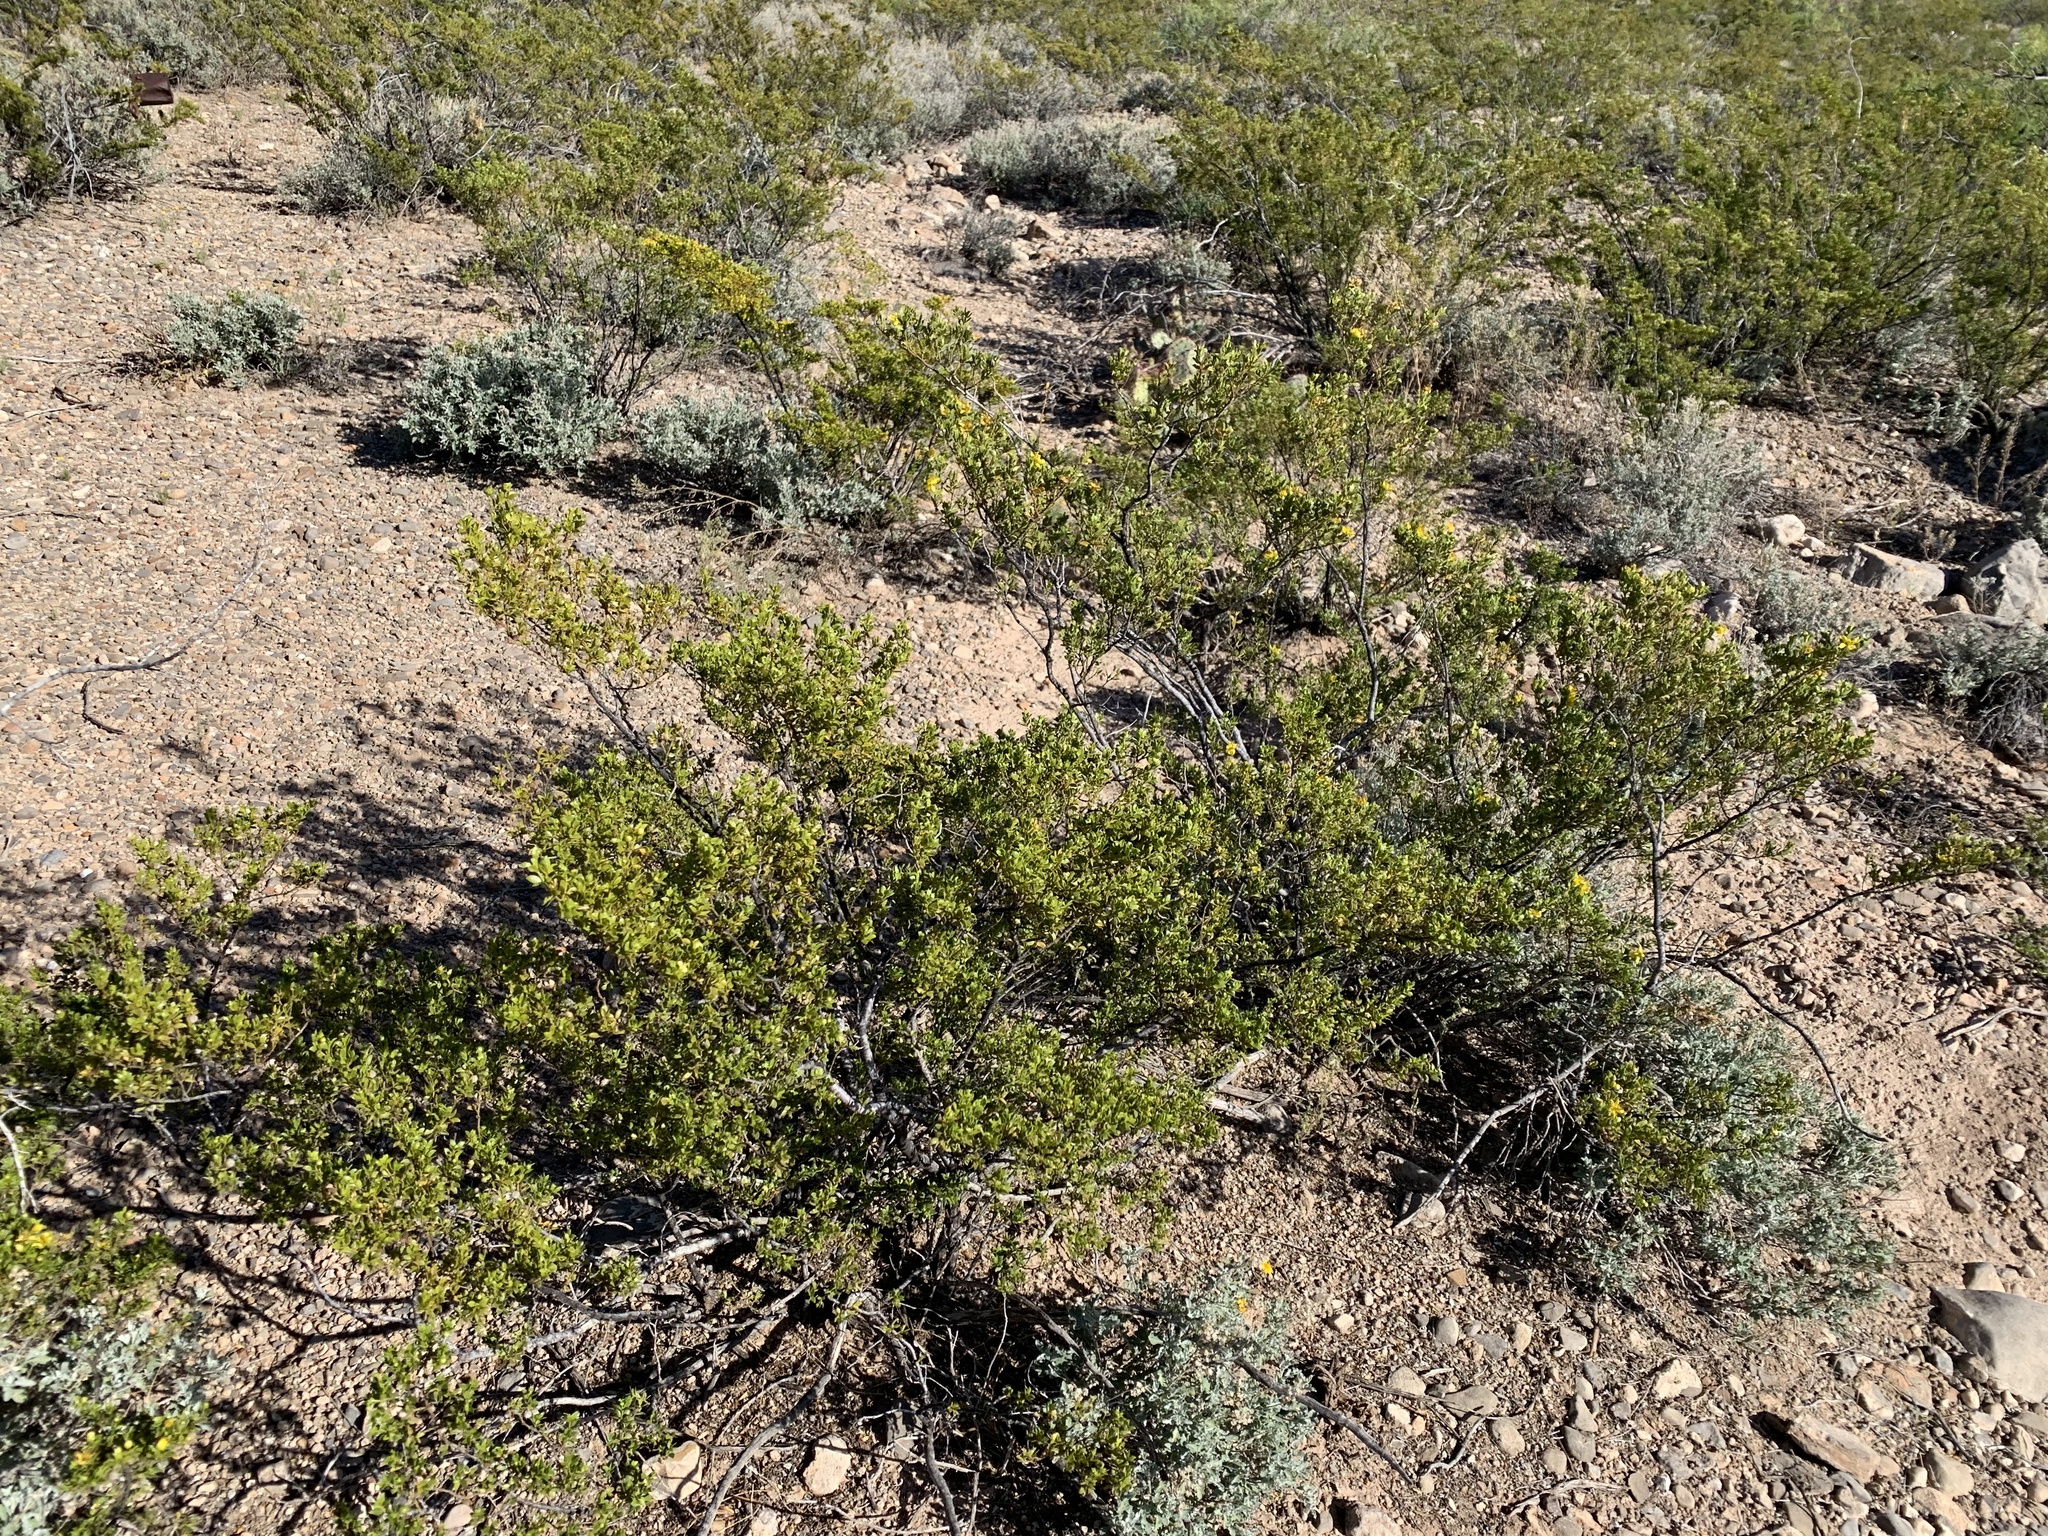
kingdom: Plantae
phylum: Tracheophyta
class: Magnoliopsida
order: Zygophyllales
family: Zygophyllaceae
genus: Larrea
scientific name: Larrea tridentata
